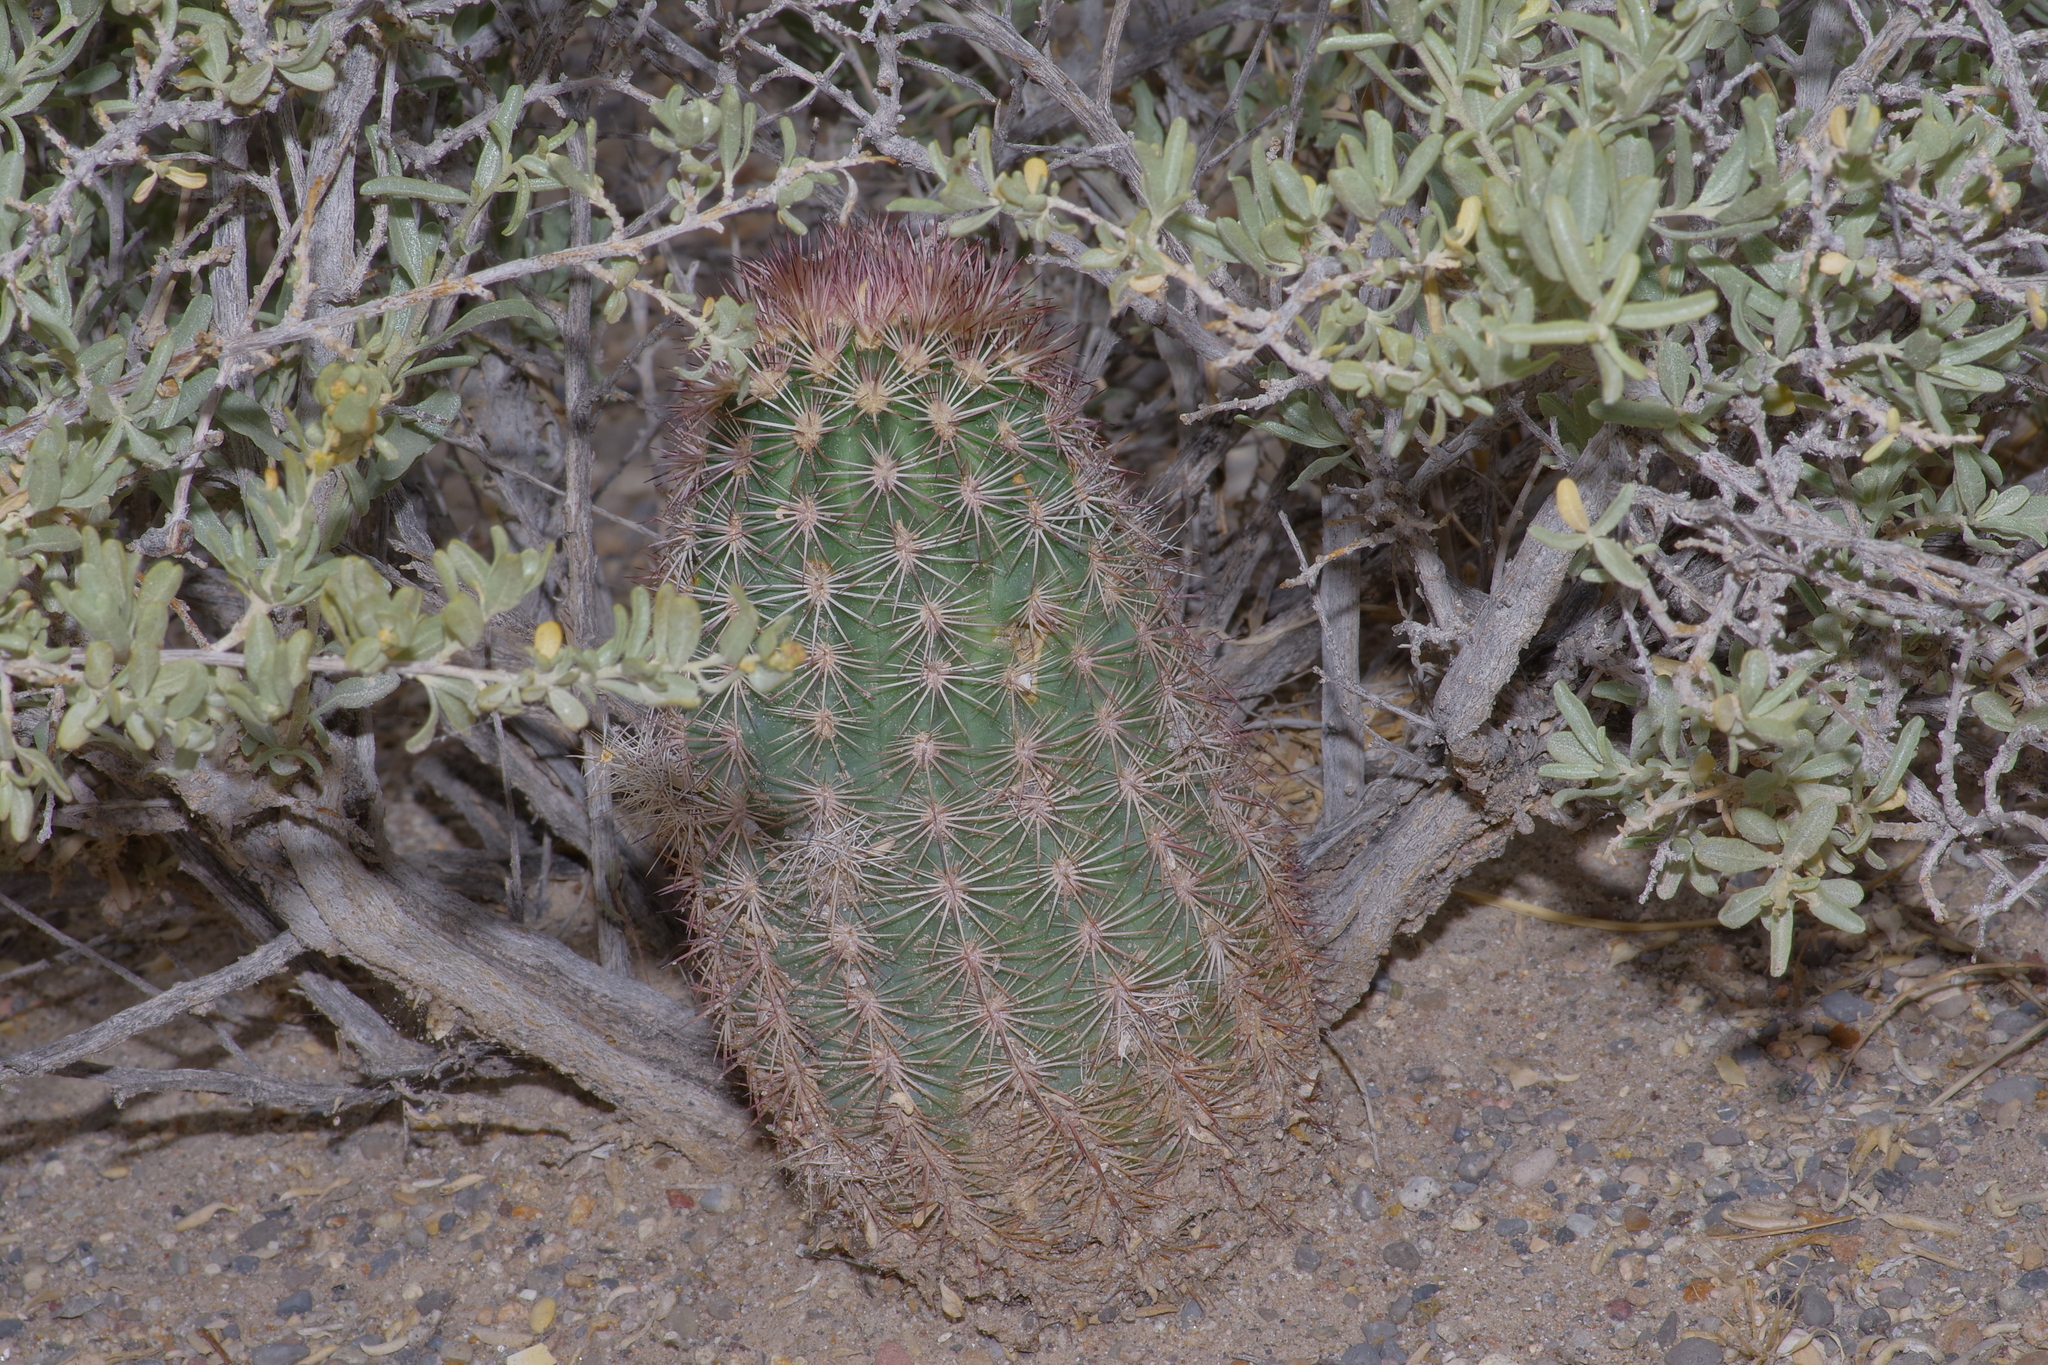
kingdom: Plantae
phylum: Tracheophyta
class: Magnoliopsida
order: Caryophyllales
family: Cactaceae
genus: Echinocereus
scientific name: Echinocereus dasyacanthus
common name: Spiny hedgehog cactus
